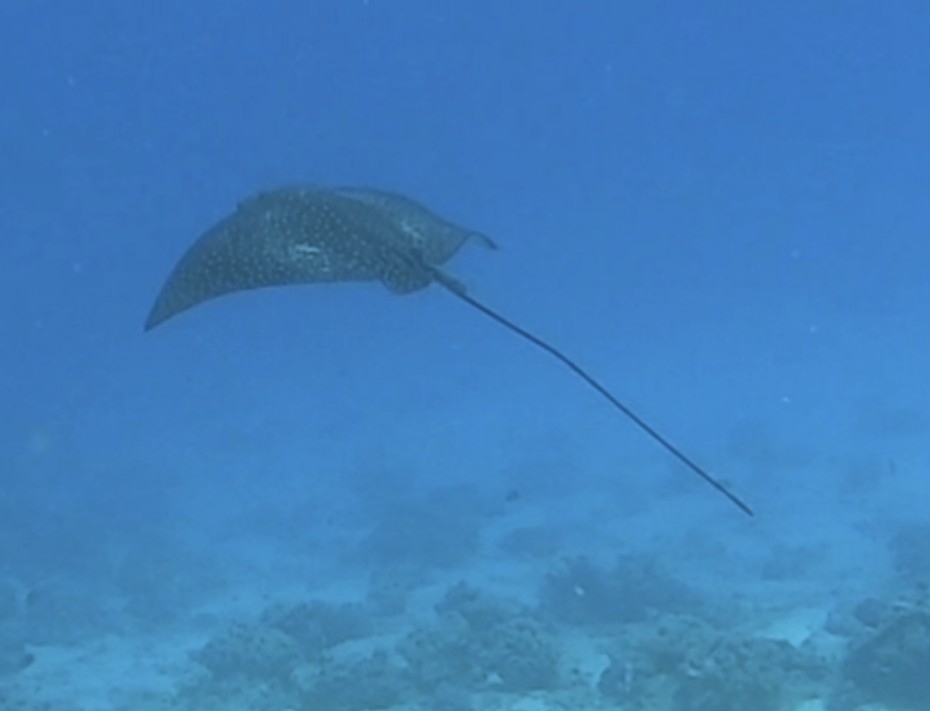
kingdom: Animalia
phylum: Chordata
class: Elasmobranchii
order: Myliobatiformes
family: Myliobatidae
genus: Aetobatus
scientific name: Aetobatus ocellatus
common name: Ocellated eagle ray
